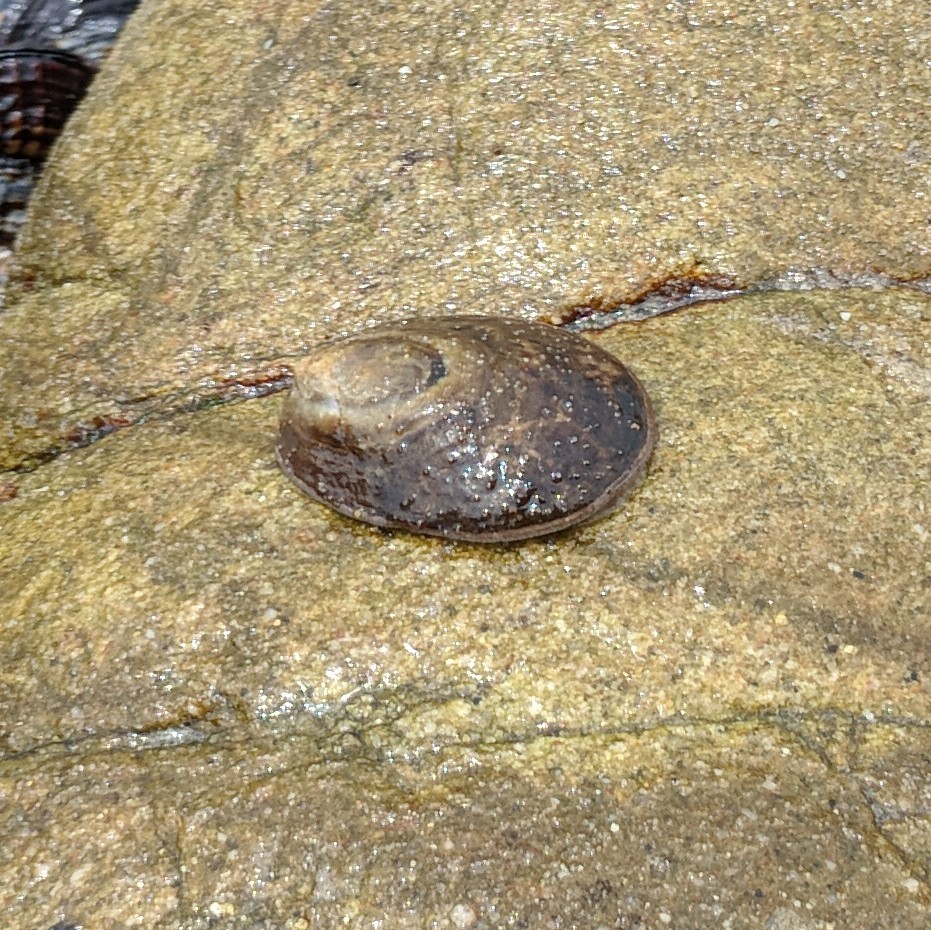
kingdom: Animalia
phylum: Mollusca
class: Gastropoda
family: Lottiidae
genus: Lottia
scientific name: Lottia gigantea
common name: Owl limpet
